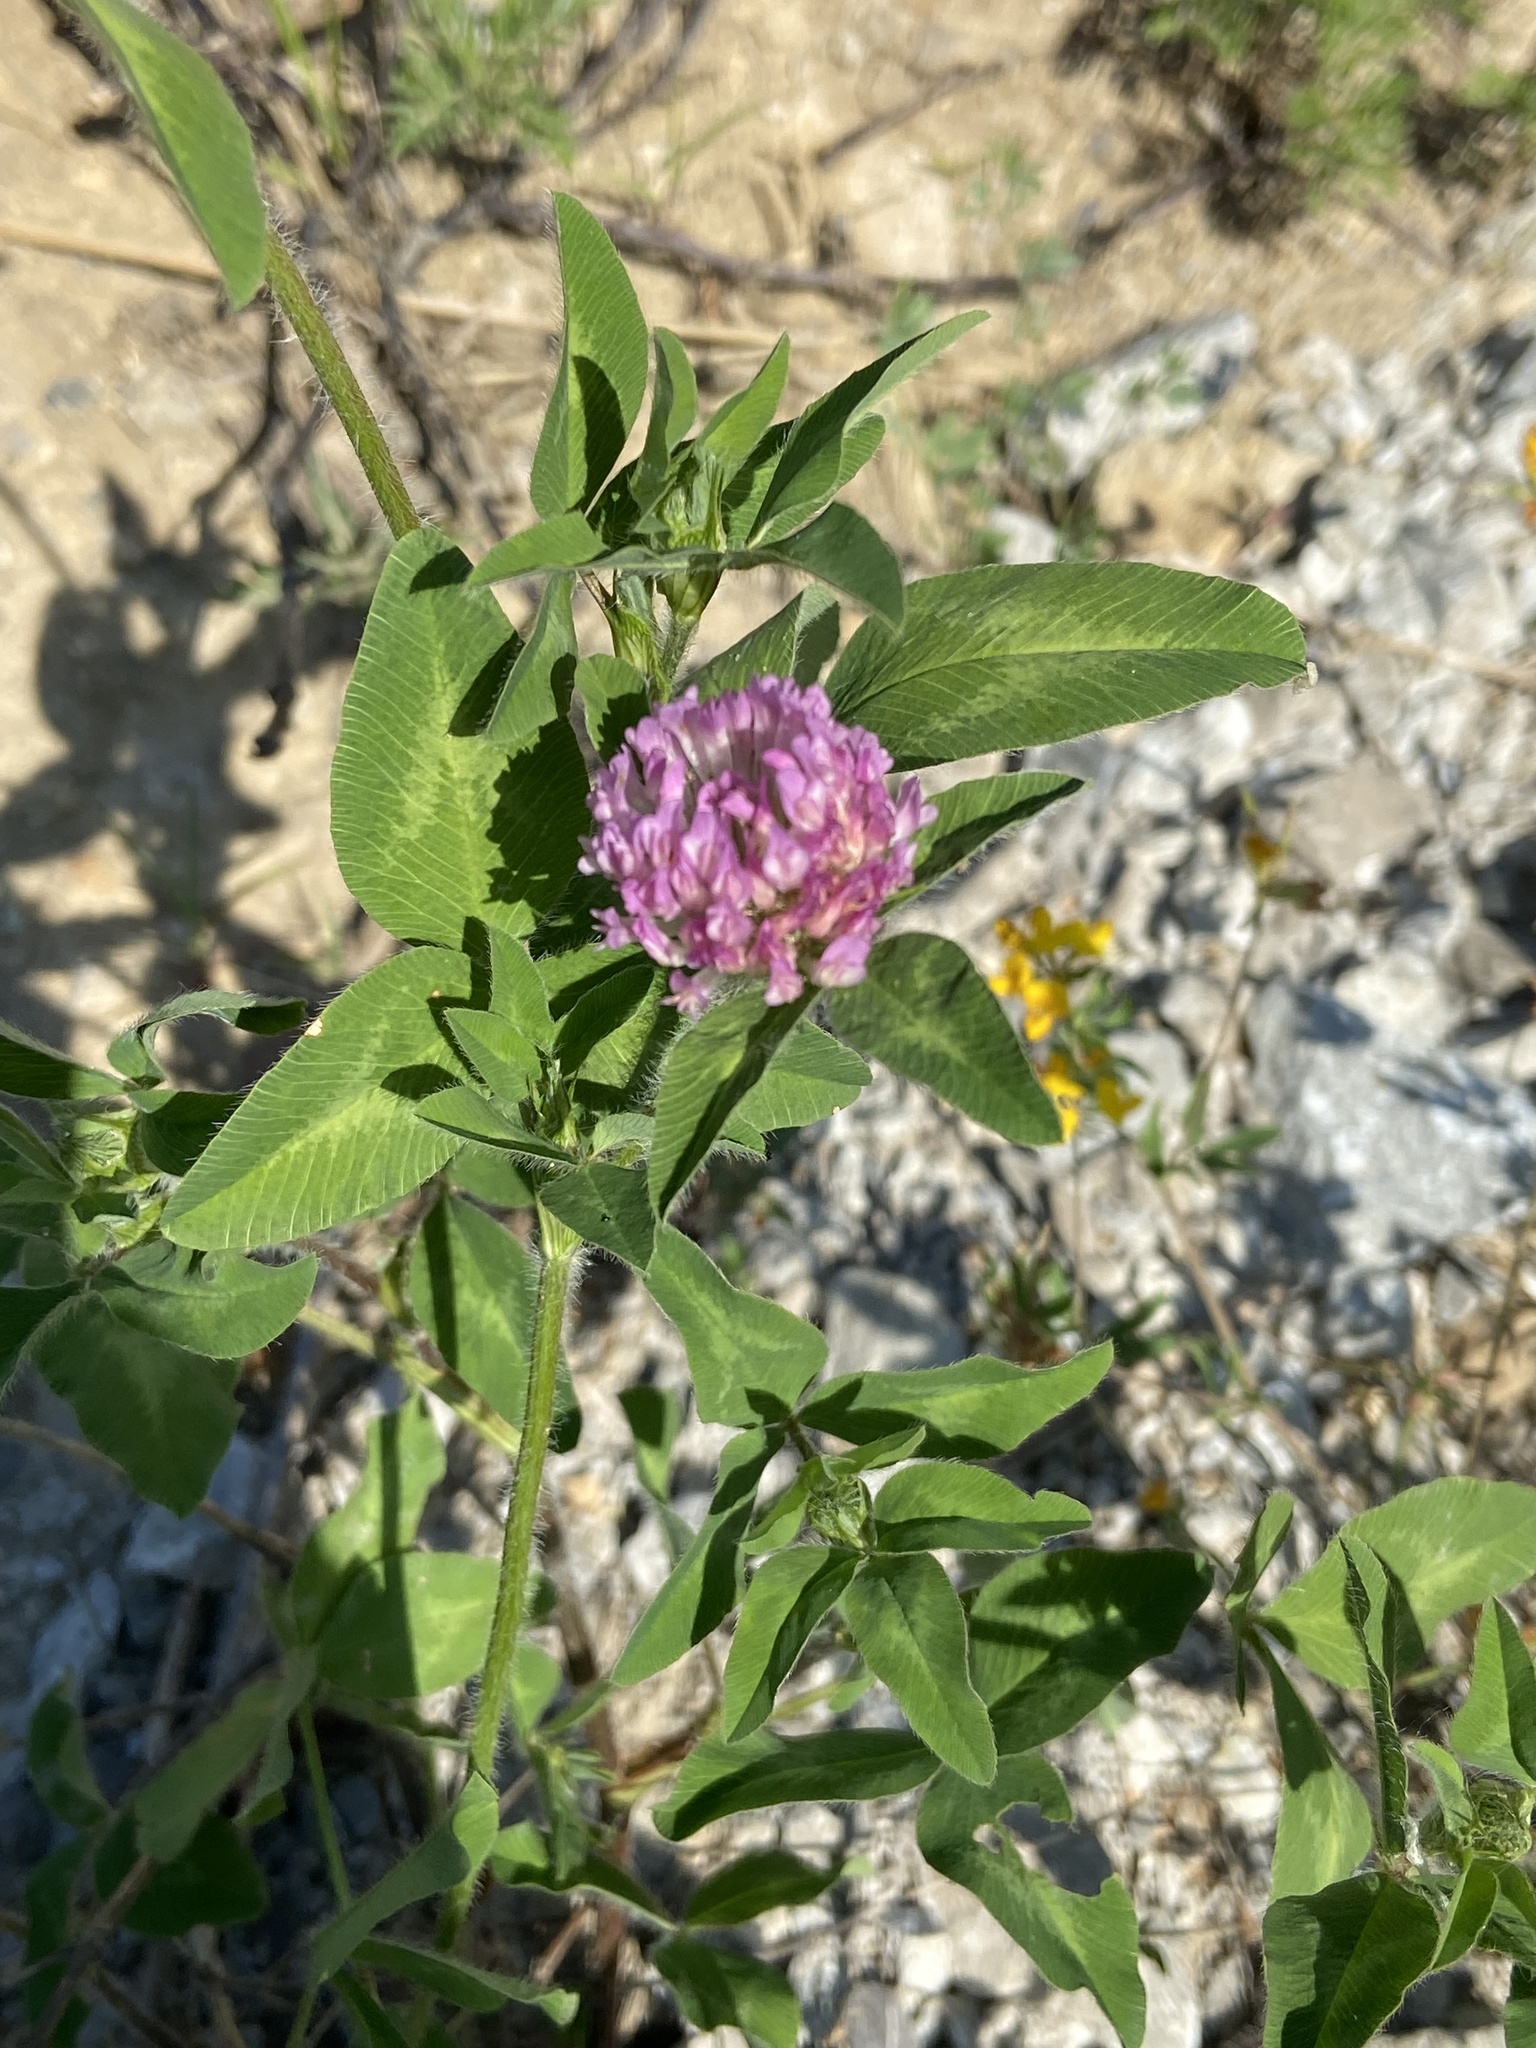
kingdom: Plantae
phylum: Tracheophyta
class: Magnoliopsida
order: Fabales
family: Fabaceae
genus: Trifolium
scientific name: Trifolium pratense
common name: Red clover
